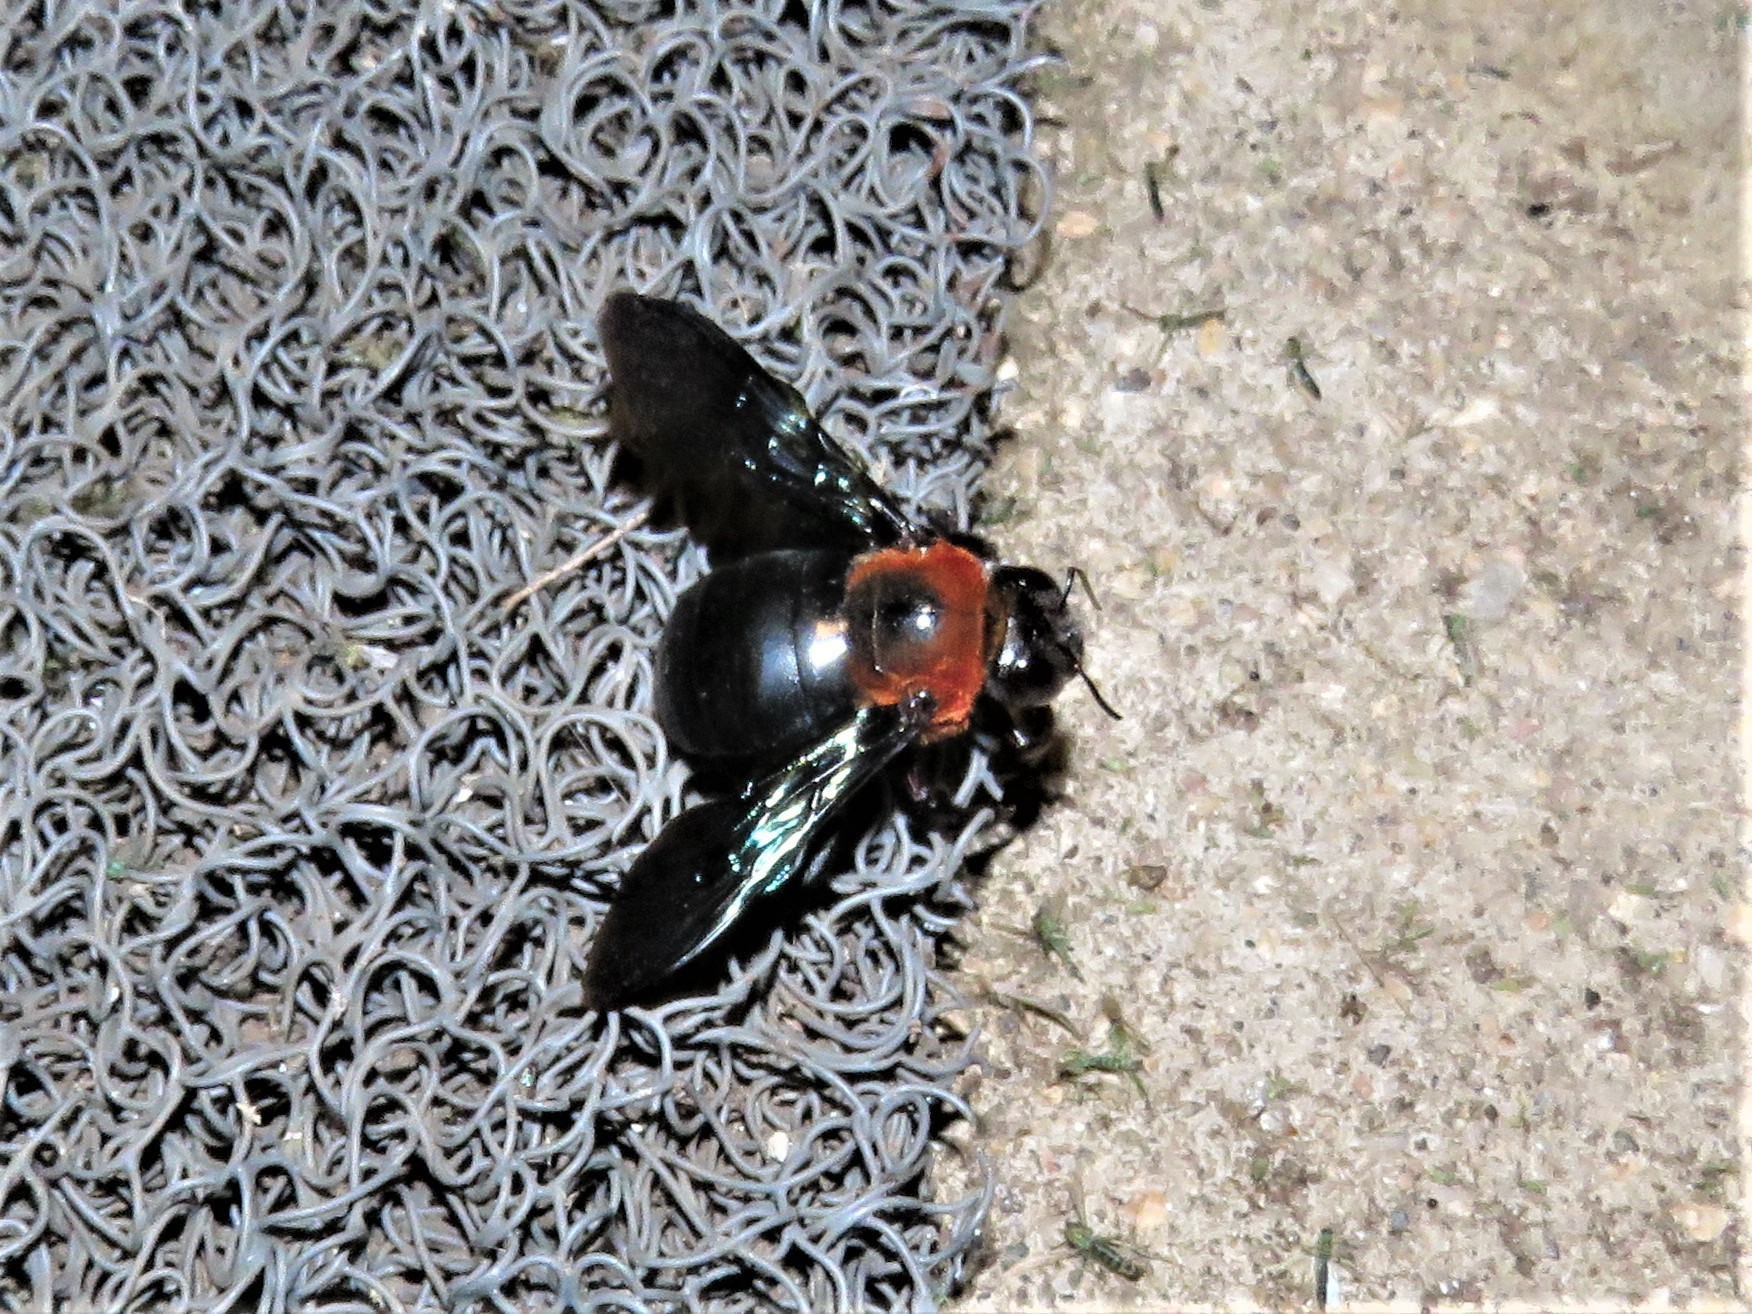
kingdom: Animalia
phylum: Arthropoda
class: Insecta
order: Hymenoptera
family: Apidae
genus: Xylocopa
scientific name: Xylocopa flavorufa
